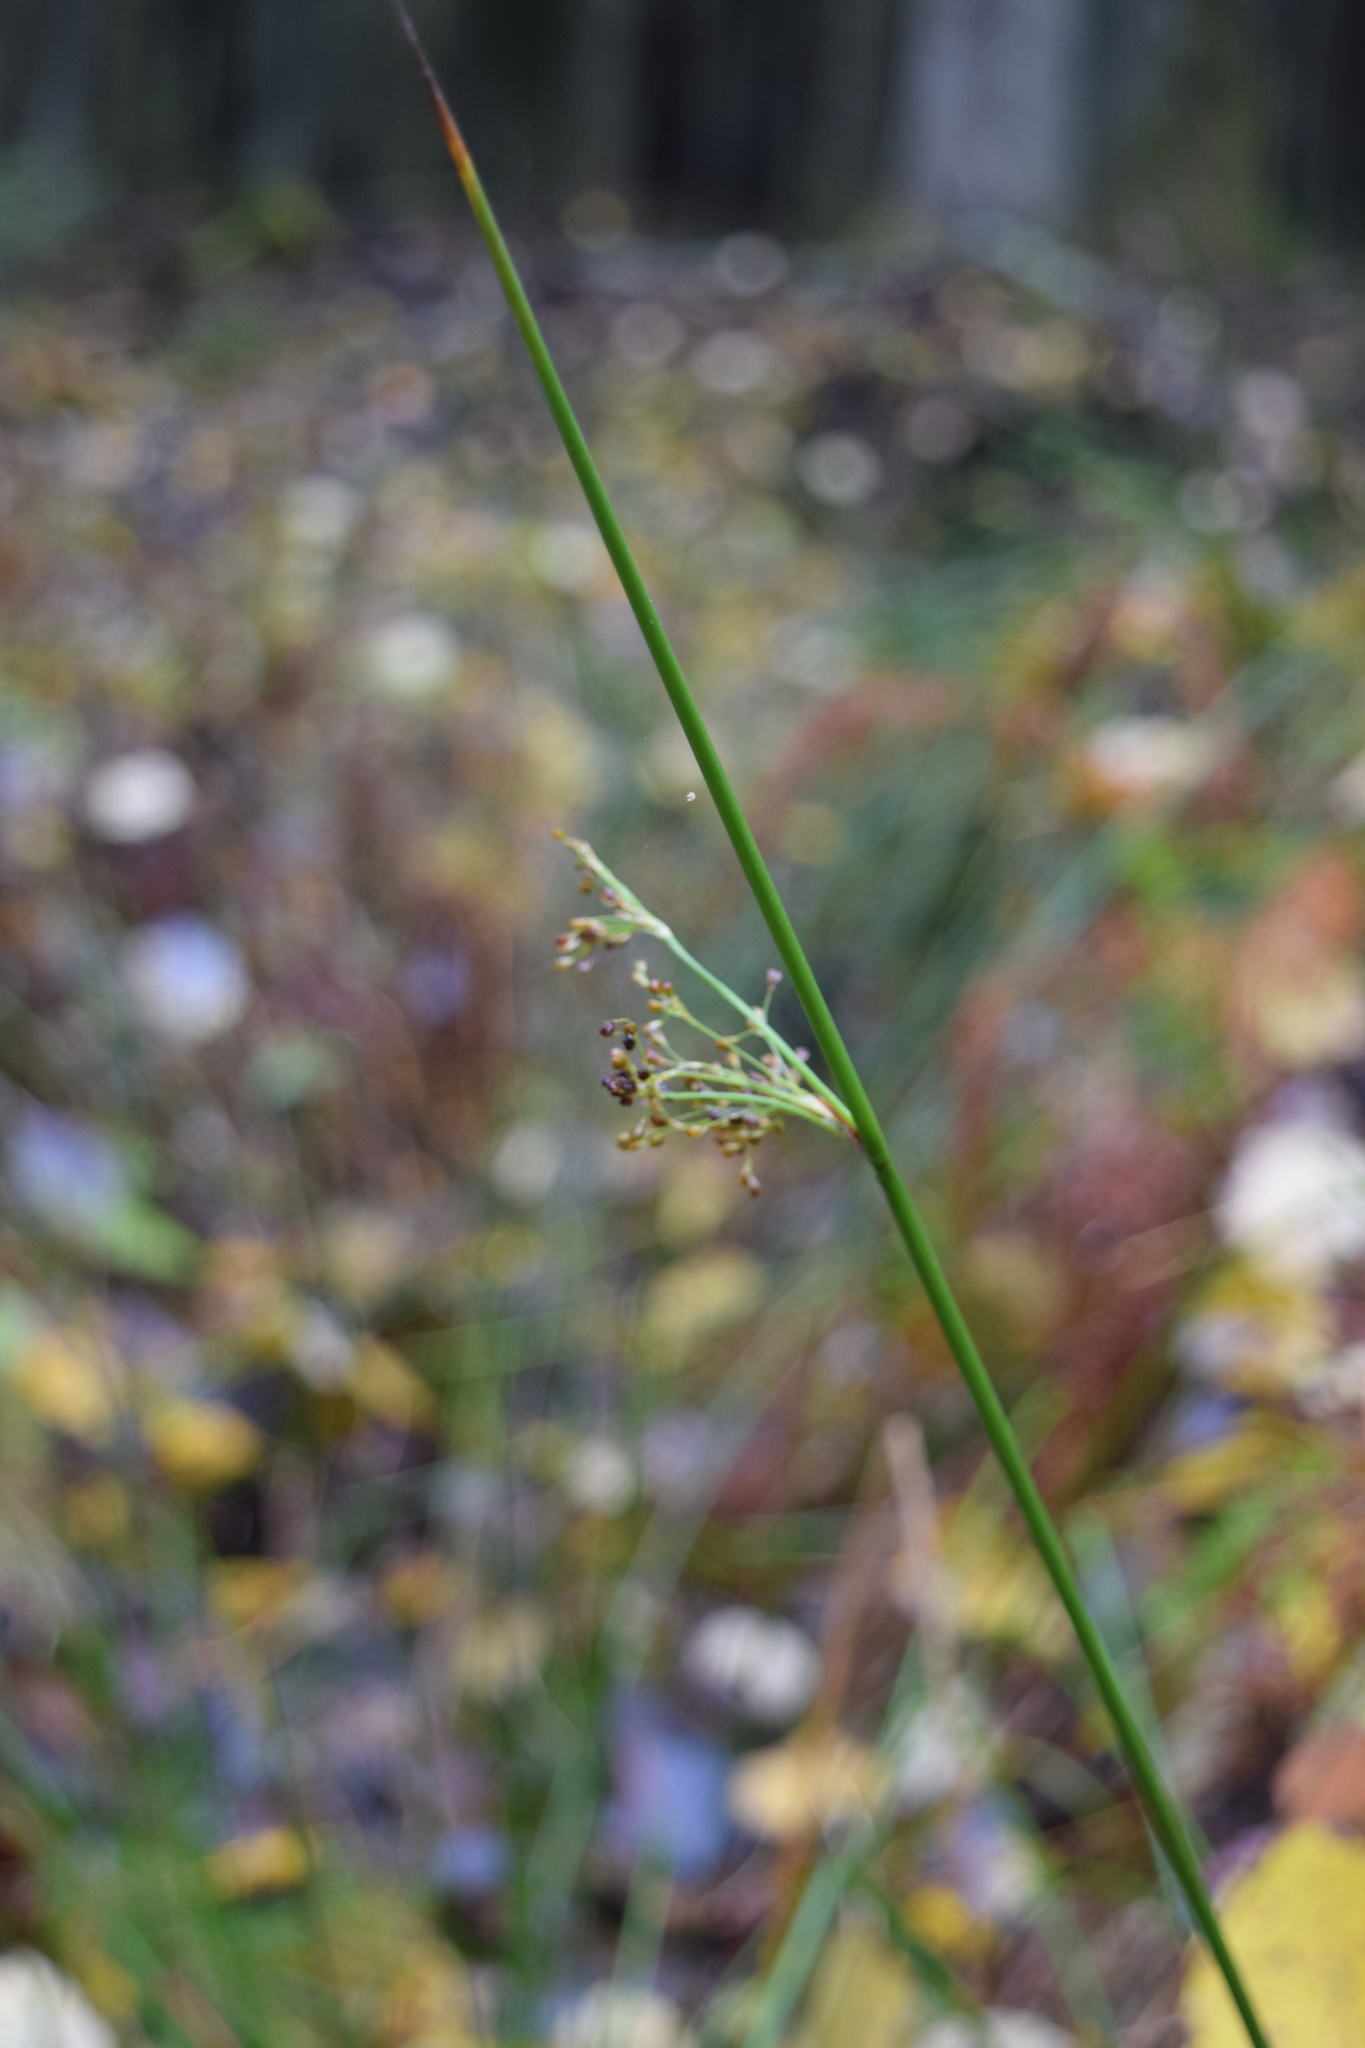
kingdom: Plantae
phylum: Tracheophyta
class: Liliopsida
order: Poales
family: Juncaceae
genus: Juncus
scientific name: Juncus effusus
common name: Soft rush
